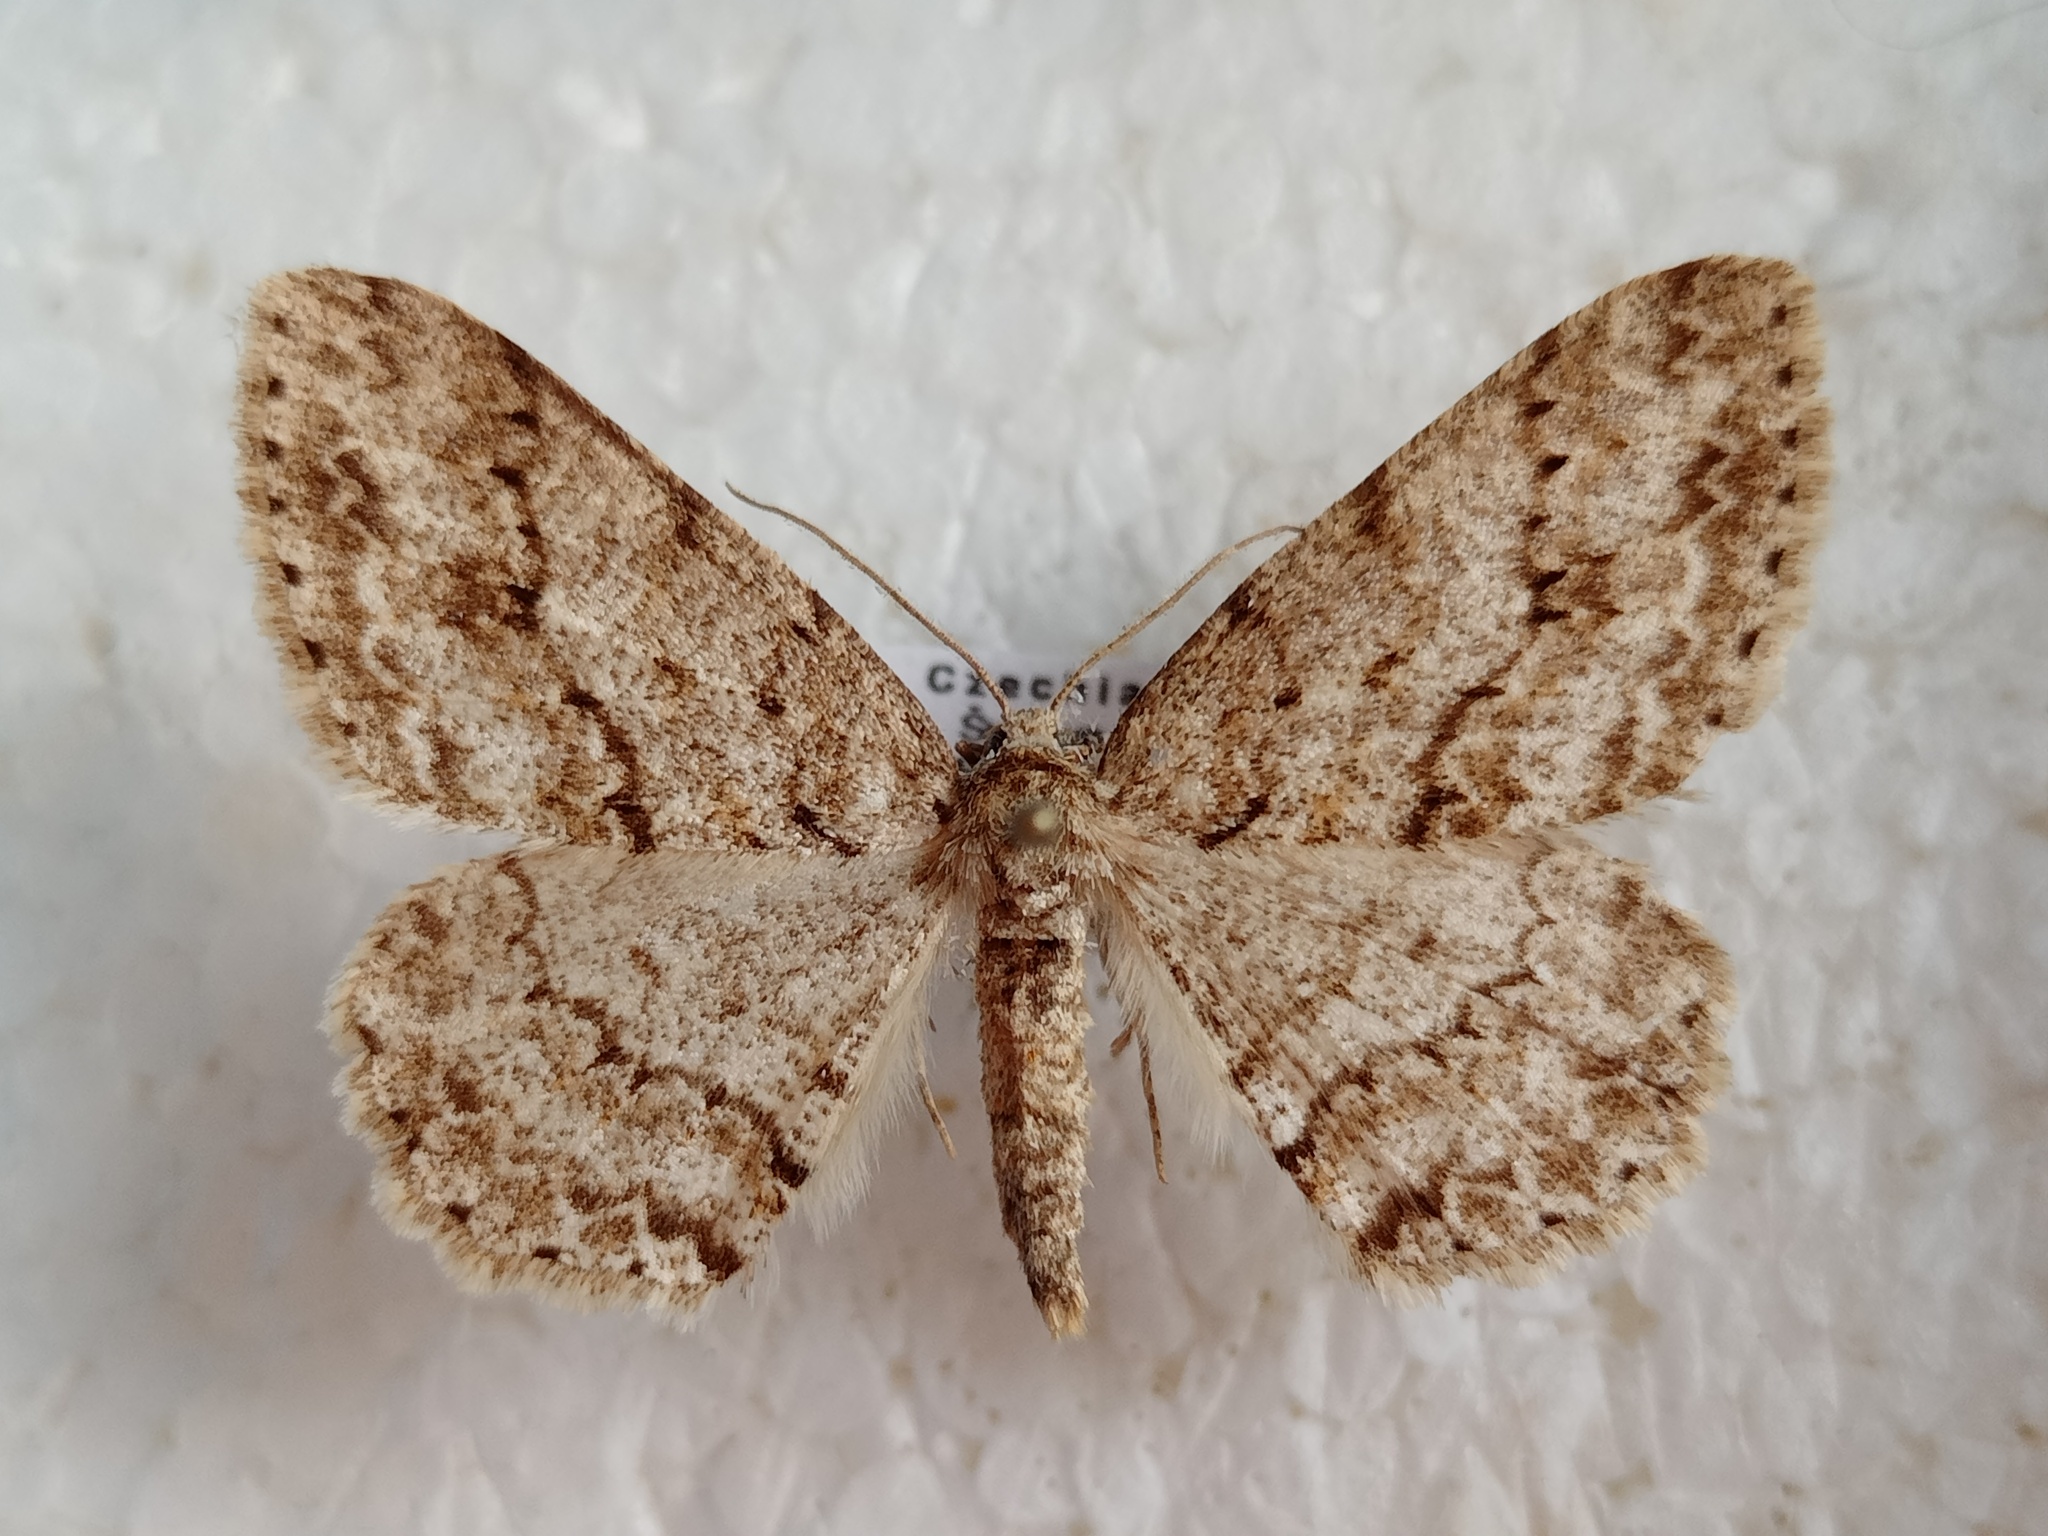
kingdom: Animalia
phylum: Arthropoda
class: Insecta
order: Lepidoptera
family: Geometridae
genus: Ectropis
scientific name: Ectropis crepuscularia
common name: Engrailed
